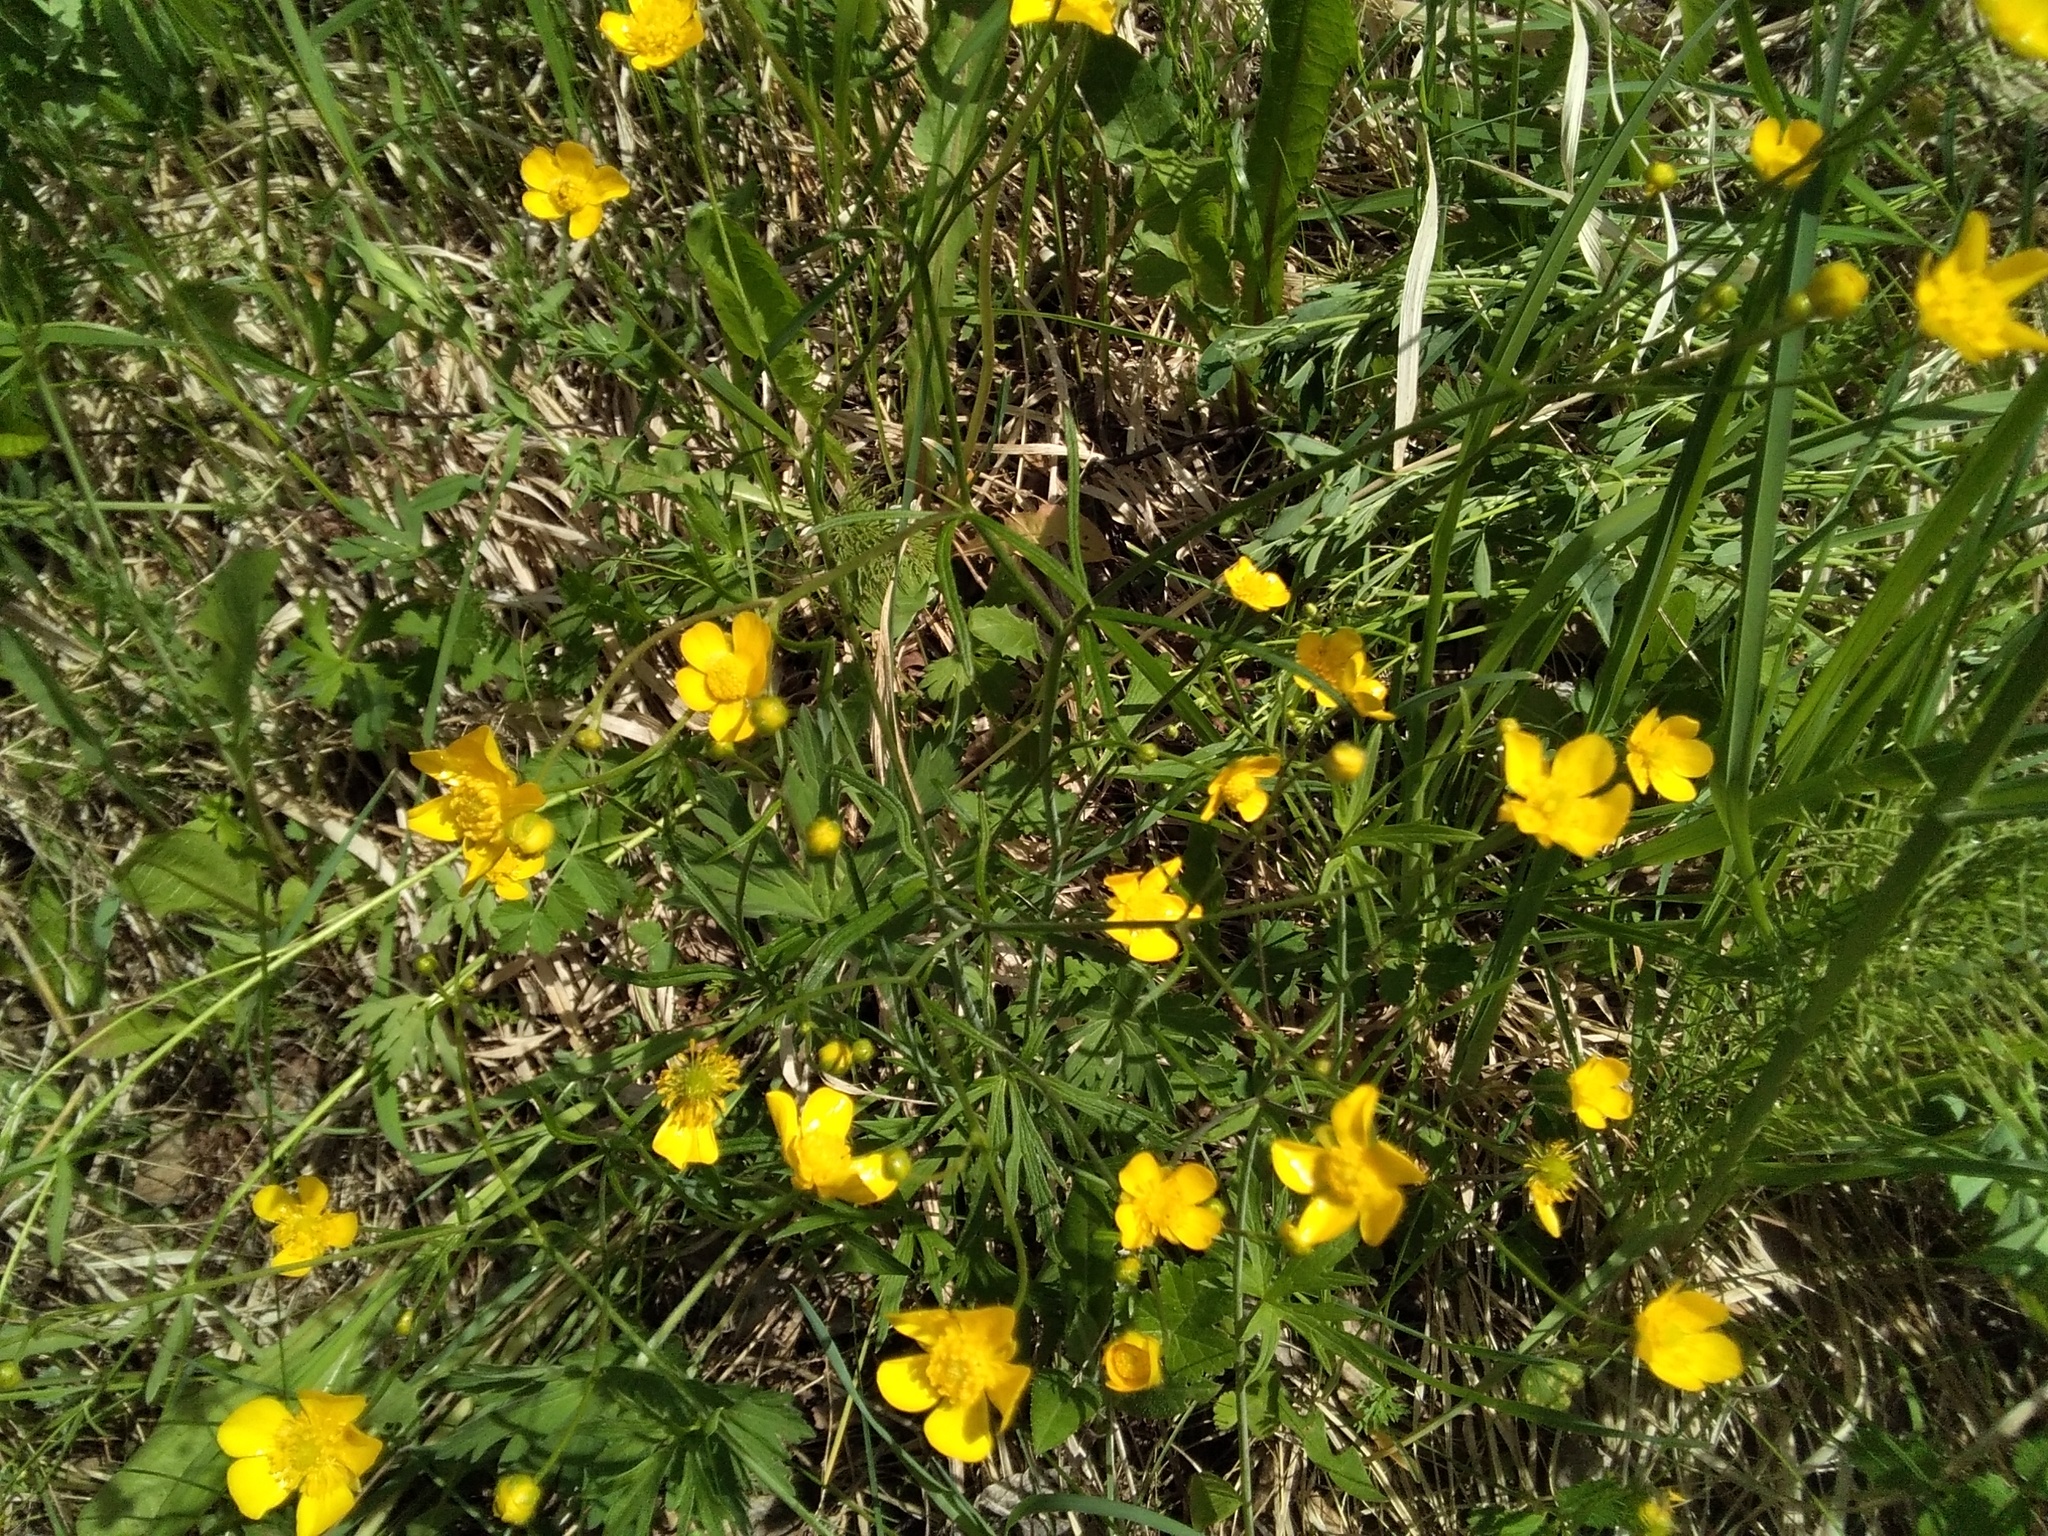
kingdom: Plantae
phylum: Tracheophyta
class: Magnoliopsida
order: Ranunculales
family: Ranunculaceae
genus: Ranunculus
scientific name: Ranunculus repens
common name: Creeping buttercup
